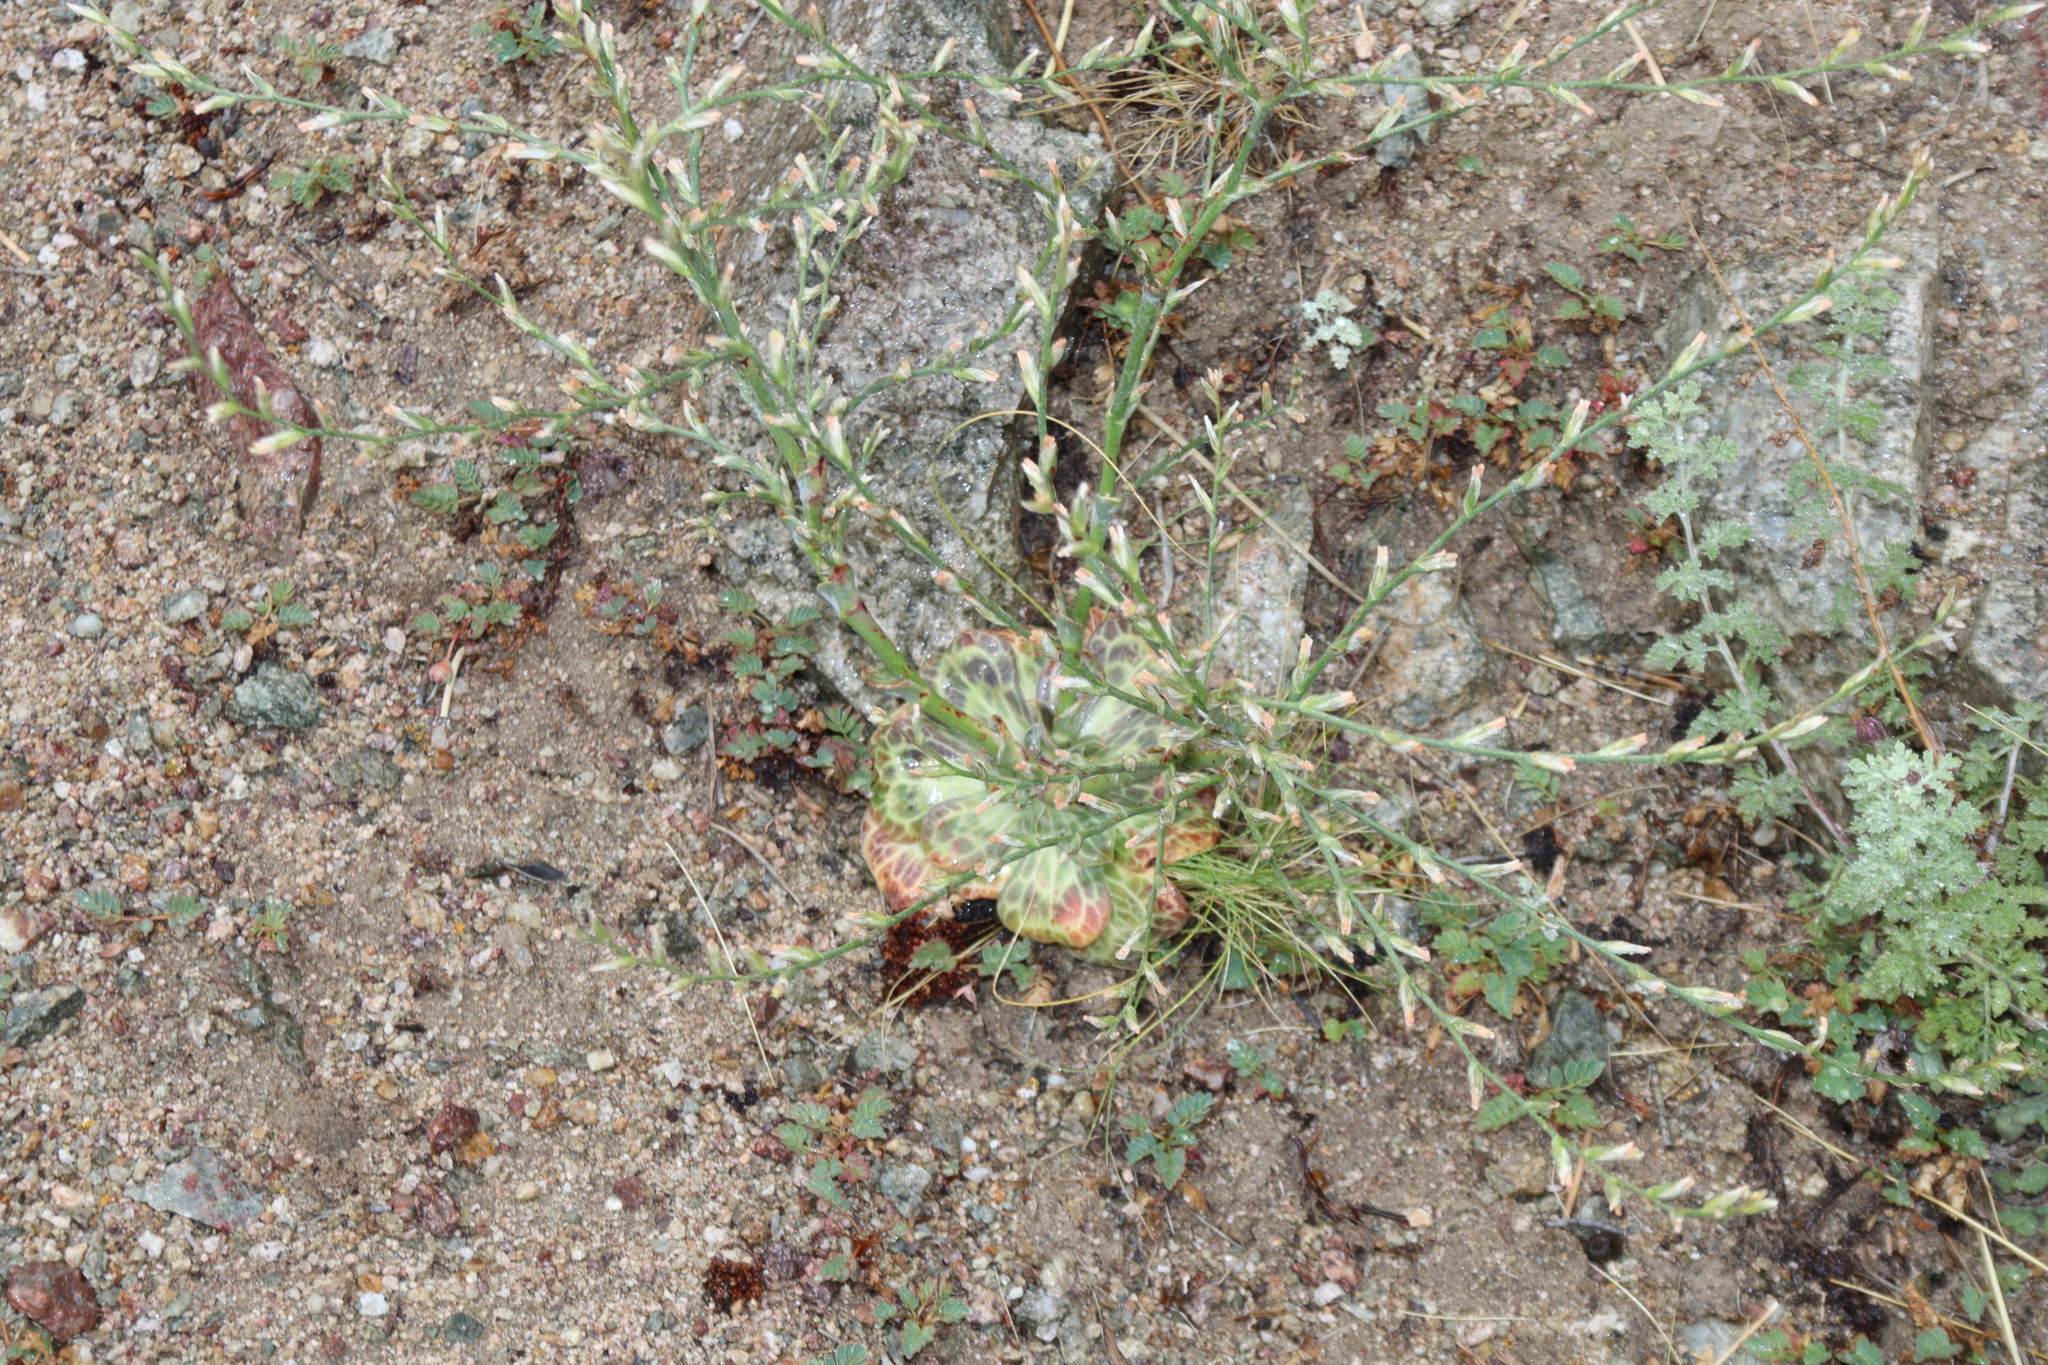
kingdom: Plantae
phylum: Tracheophyta
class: Magnoliopsida
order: Caryophyllales
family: Plumbaginaceae
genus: Bukiniczia
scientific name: Bukiniczia cabulica
